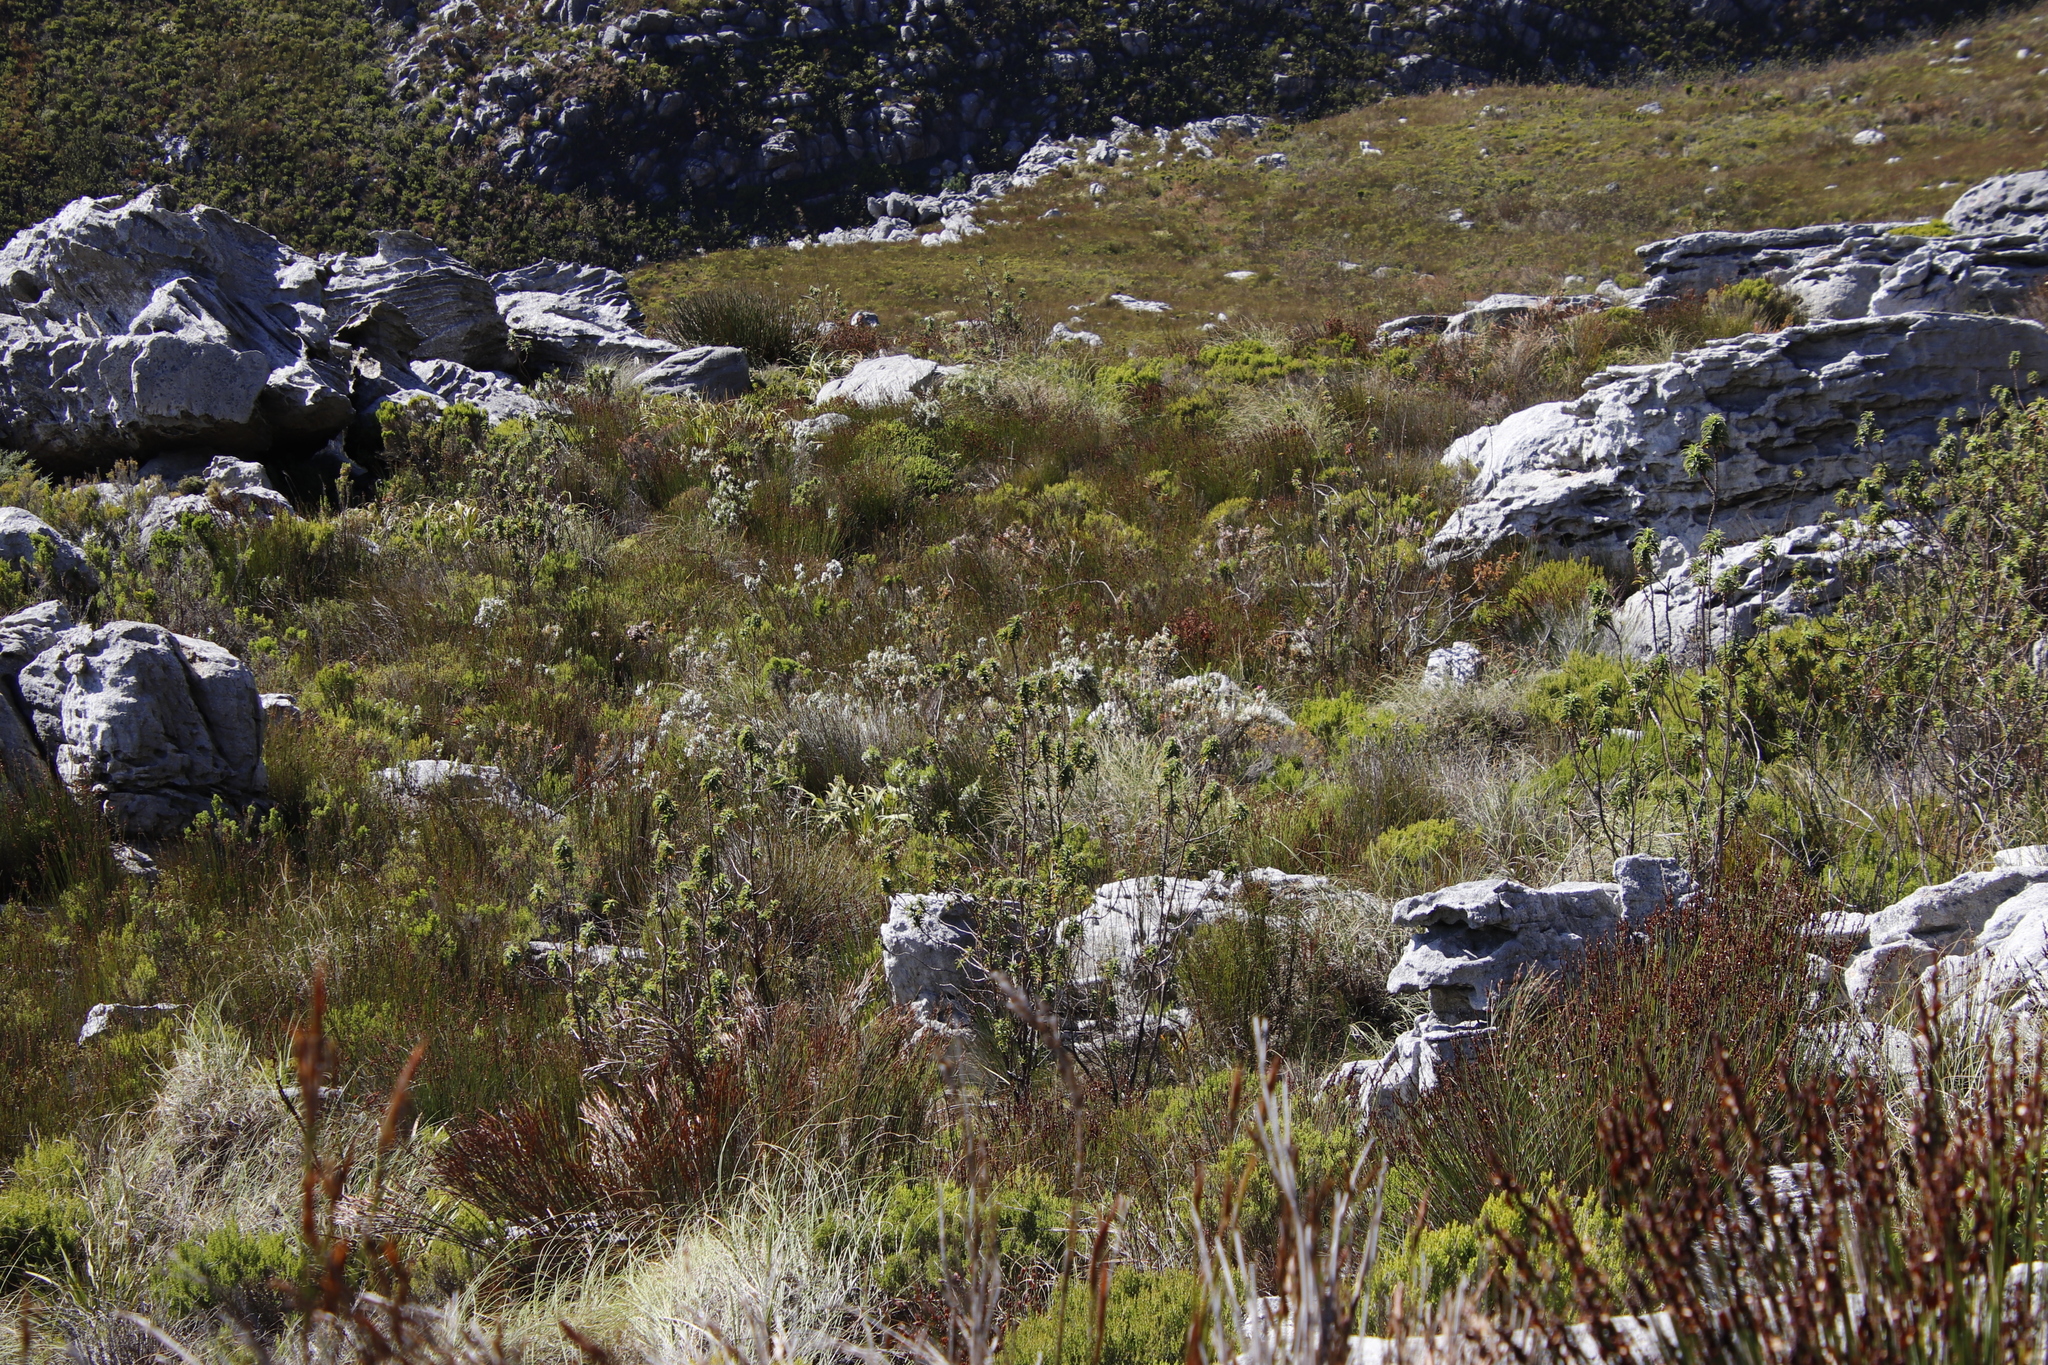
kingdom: Plantae
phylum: Tracheophyta
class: Magnoliopsida
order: Rosales
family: Rosaceae
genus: Cliffortia
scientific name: Cliffortia recurvata
